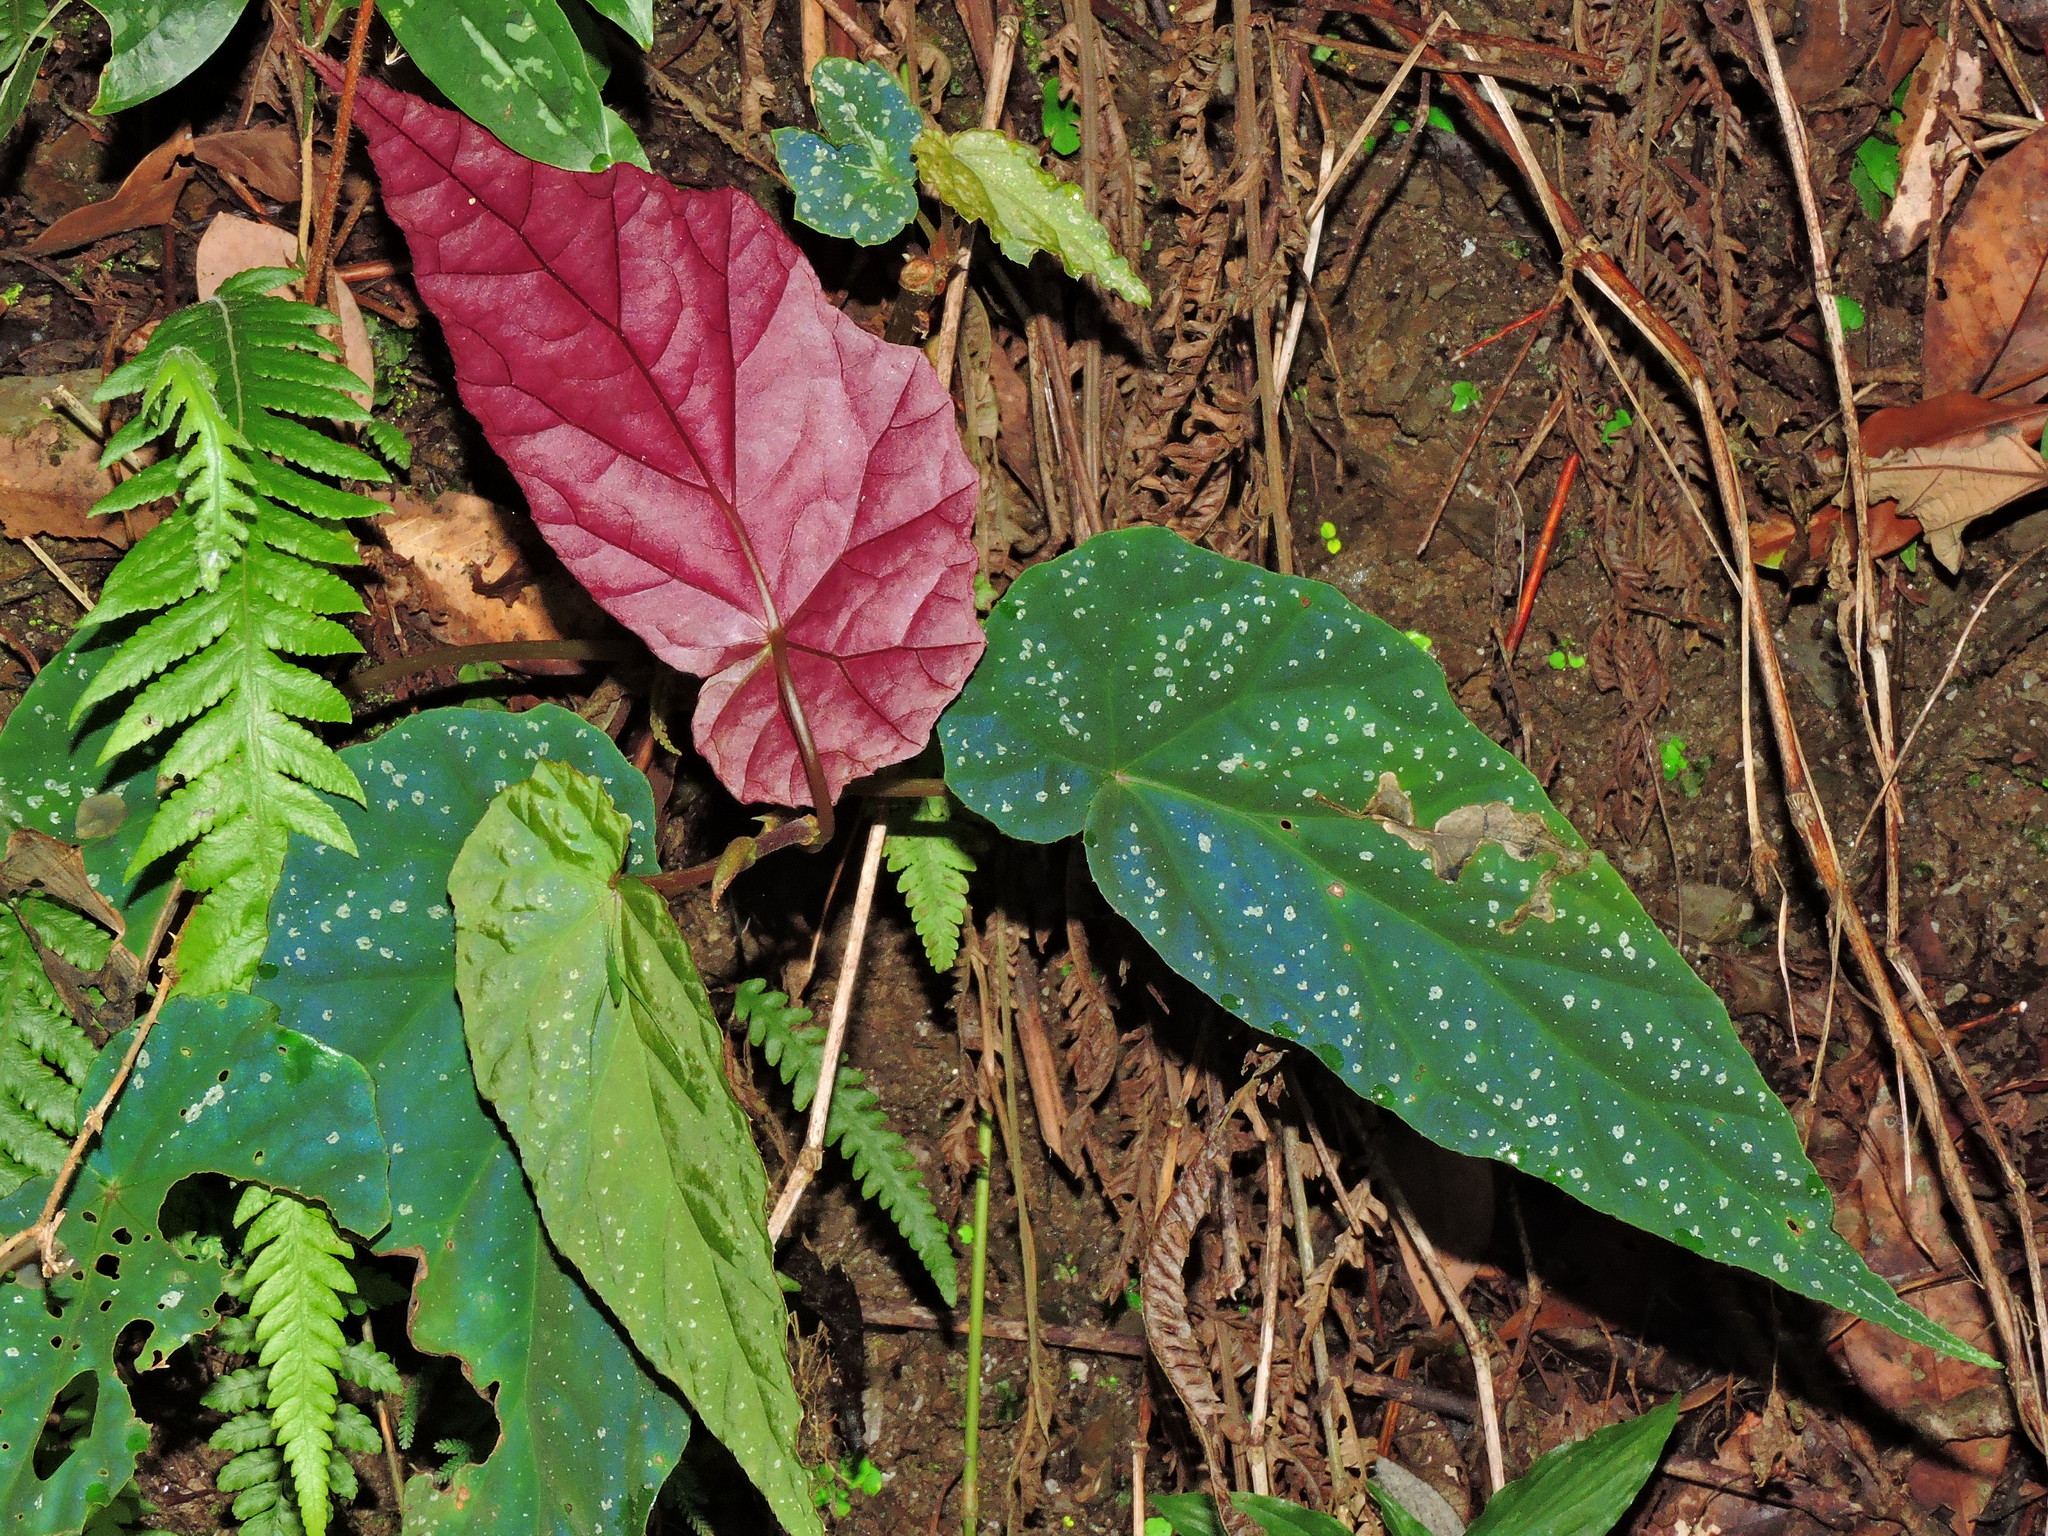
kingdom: Plantae
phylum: Tracheophyta
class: Magnoliopsida
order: Cucurbitales
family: Begoniaceae
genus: Begonia
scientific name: Begonia lukuana
